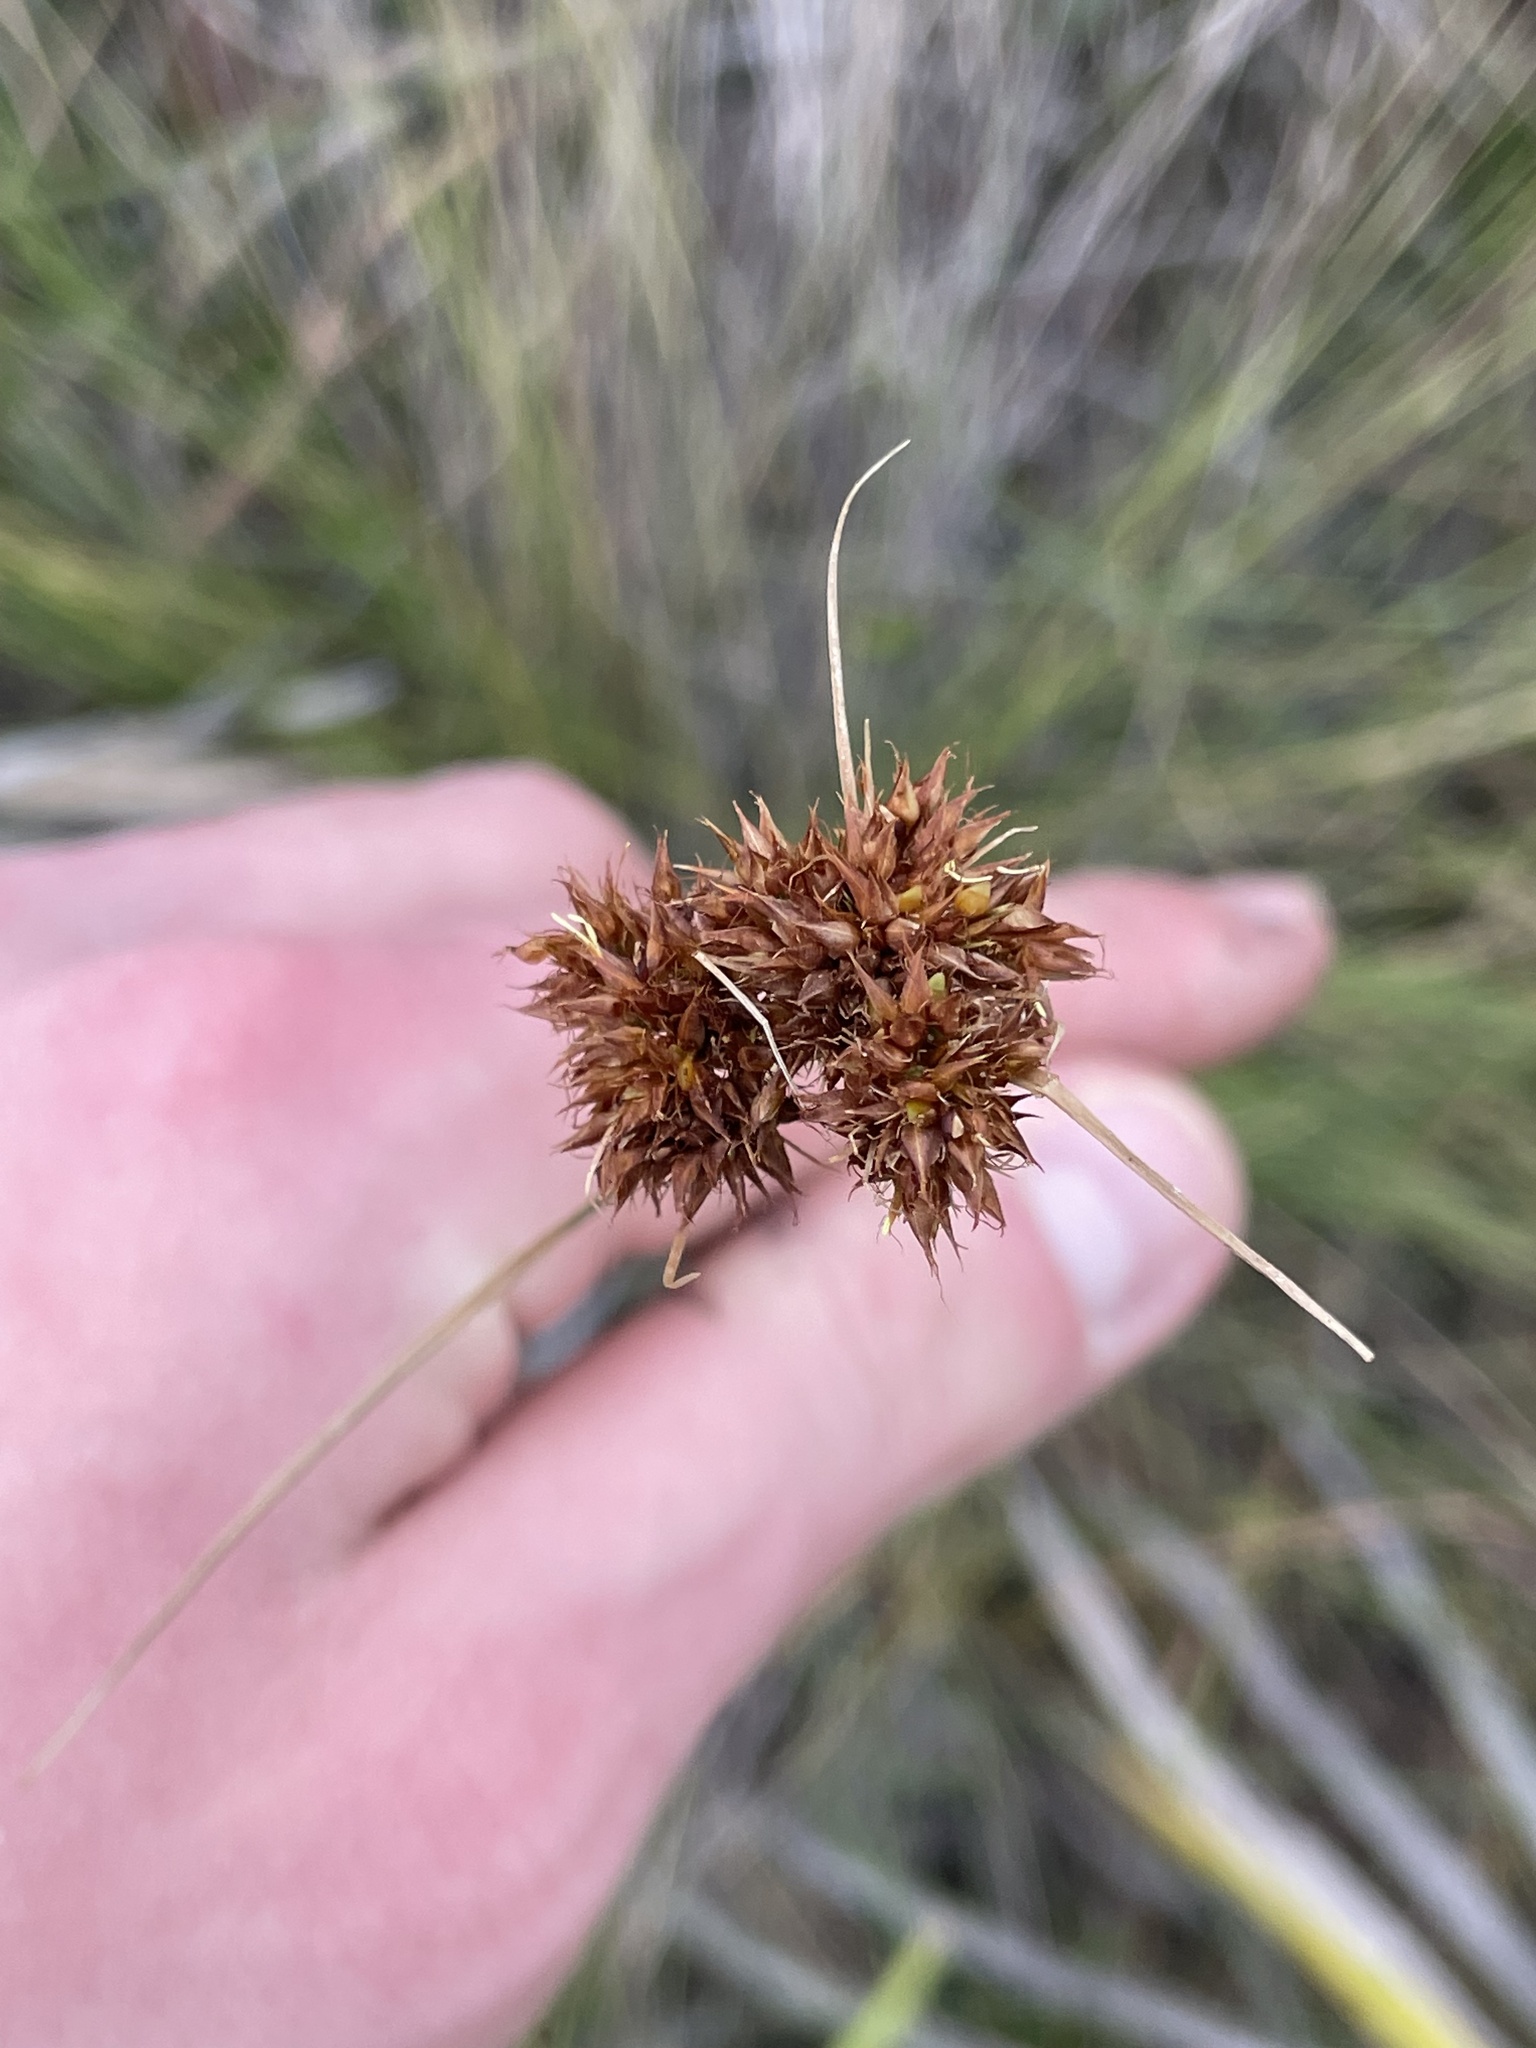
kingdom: Plantae
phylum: Tracheophyta
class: Liliopsida
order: Poales
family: Cyperaceae
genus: Rhynchospora
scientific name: Rhynchospora fascicularis
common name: Fascicled beak sedge
